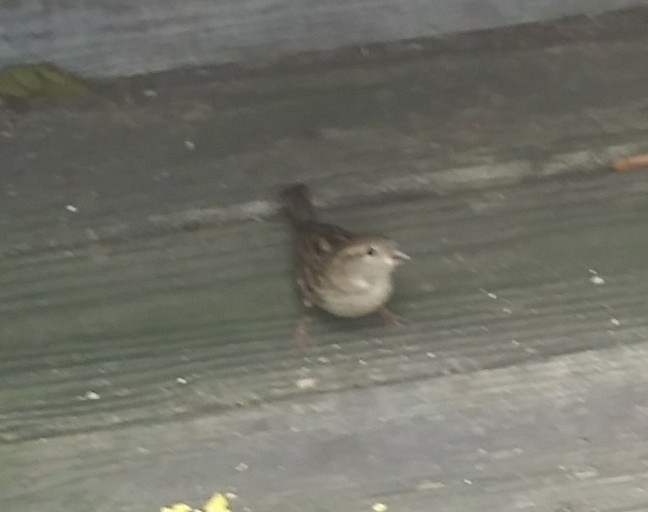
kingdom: Animalia
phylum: Chordata
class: Aves
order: Passeriformes
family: Passeridae
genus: Passer
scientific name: Passer domesticus
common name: House sparrow
